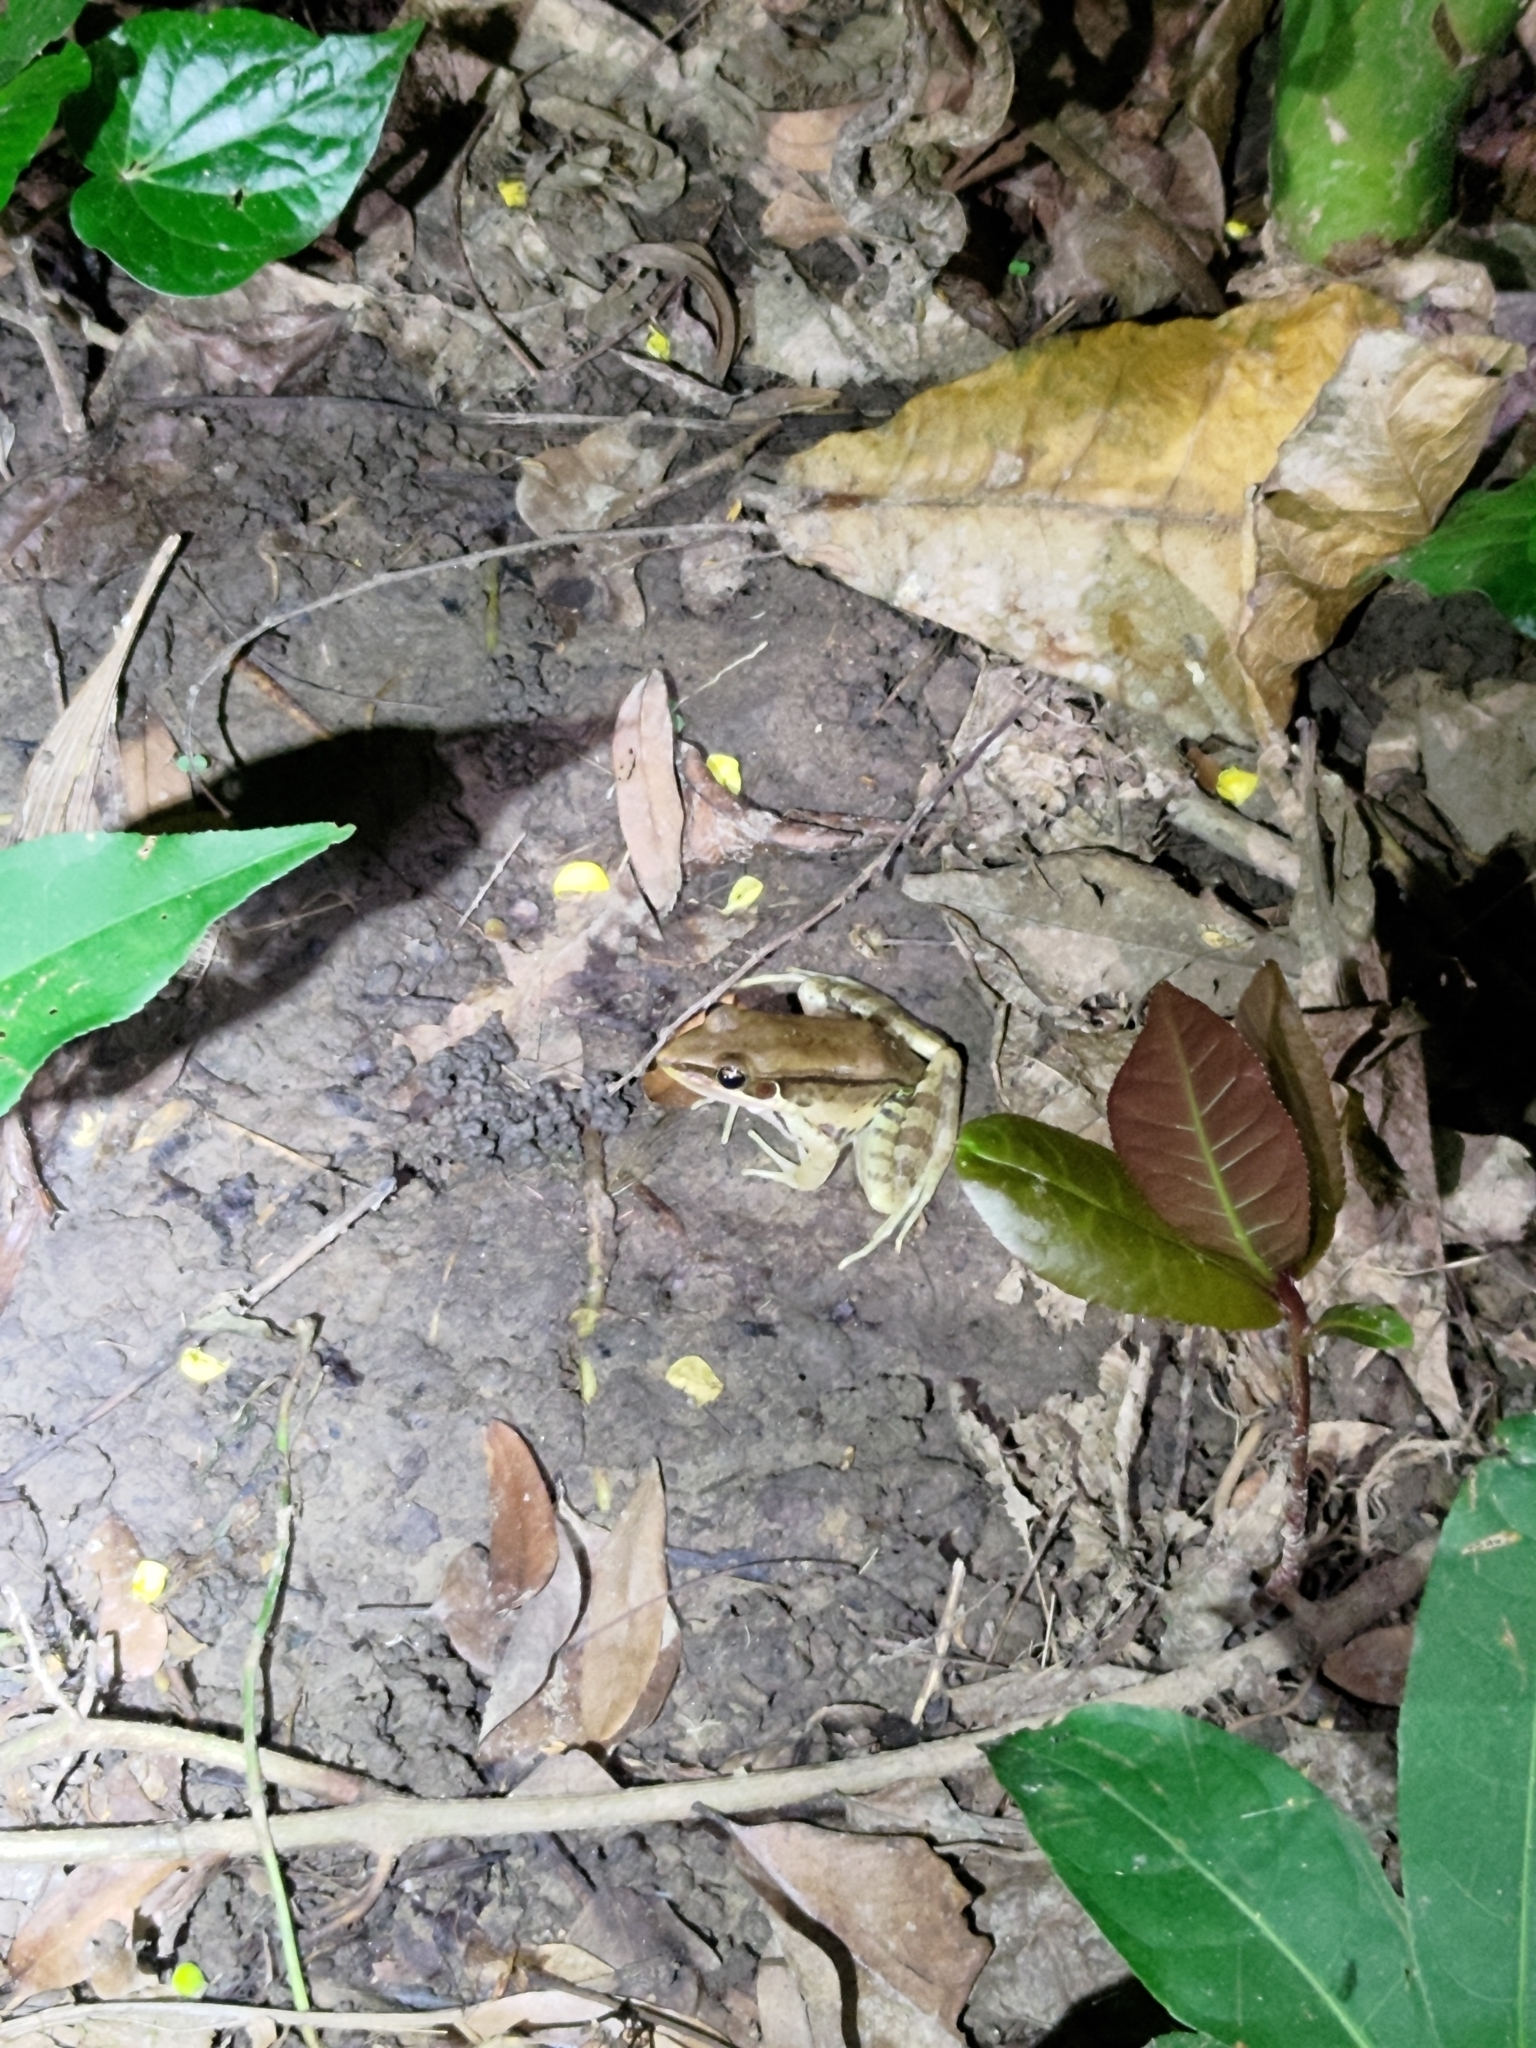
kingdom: Animalia
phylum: Chordata
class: Amphibia
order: Anura
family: Ranidae
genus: Sylvirana
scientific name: Sylvirana guentheri
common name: Guenther's amoy frog
